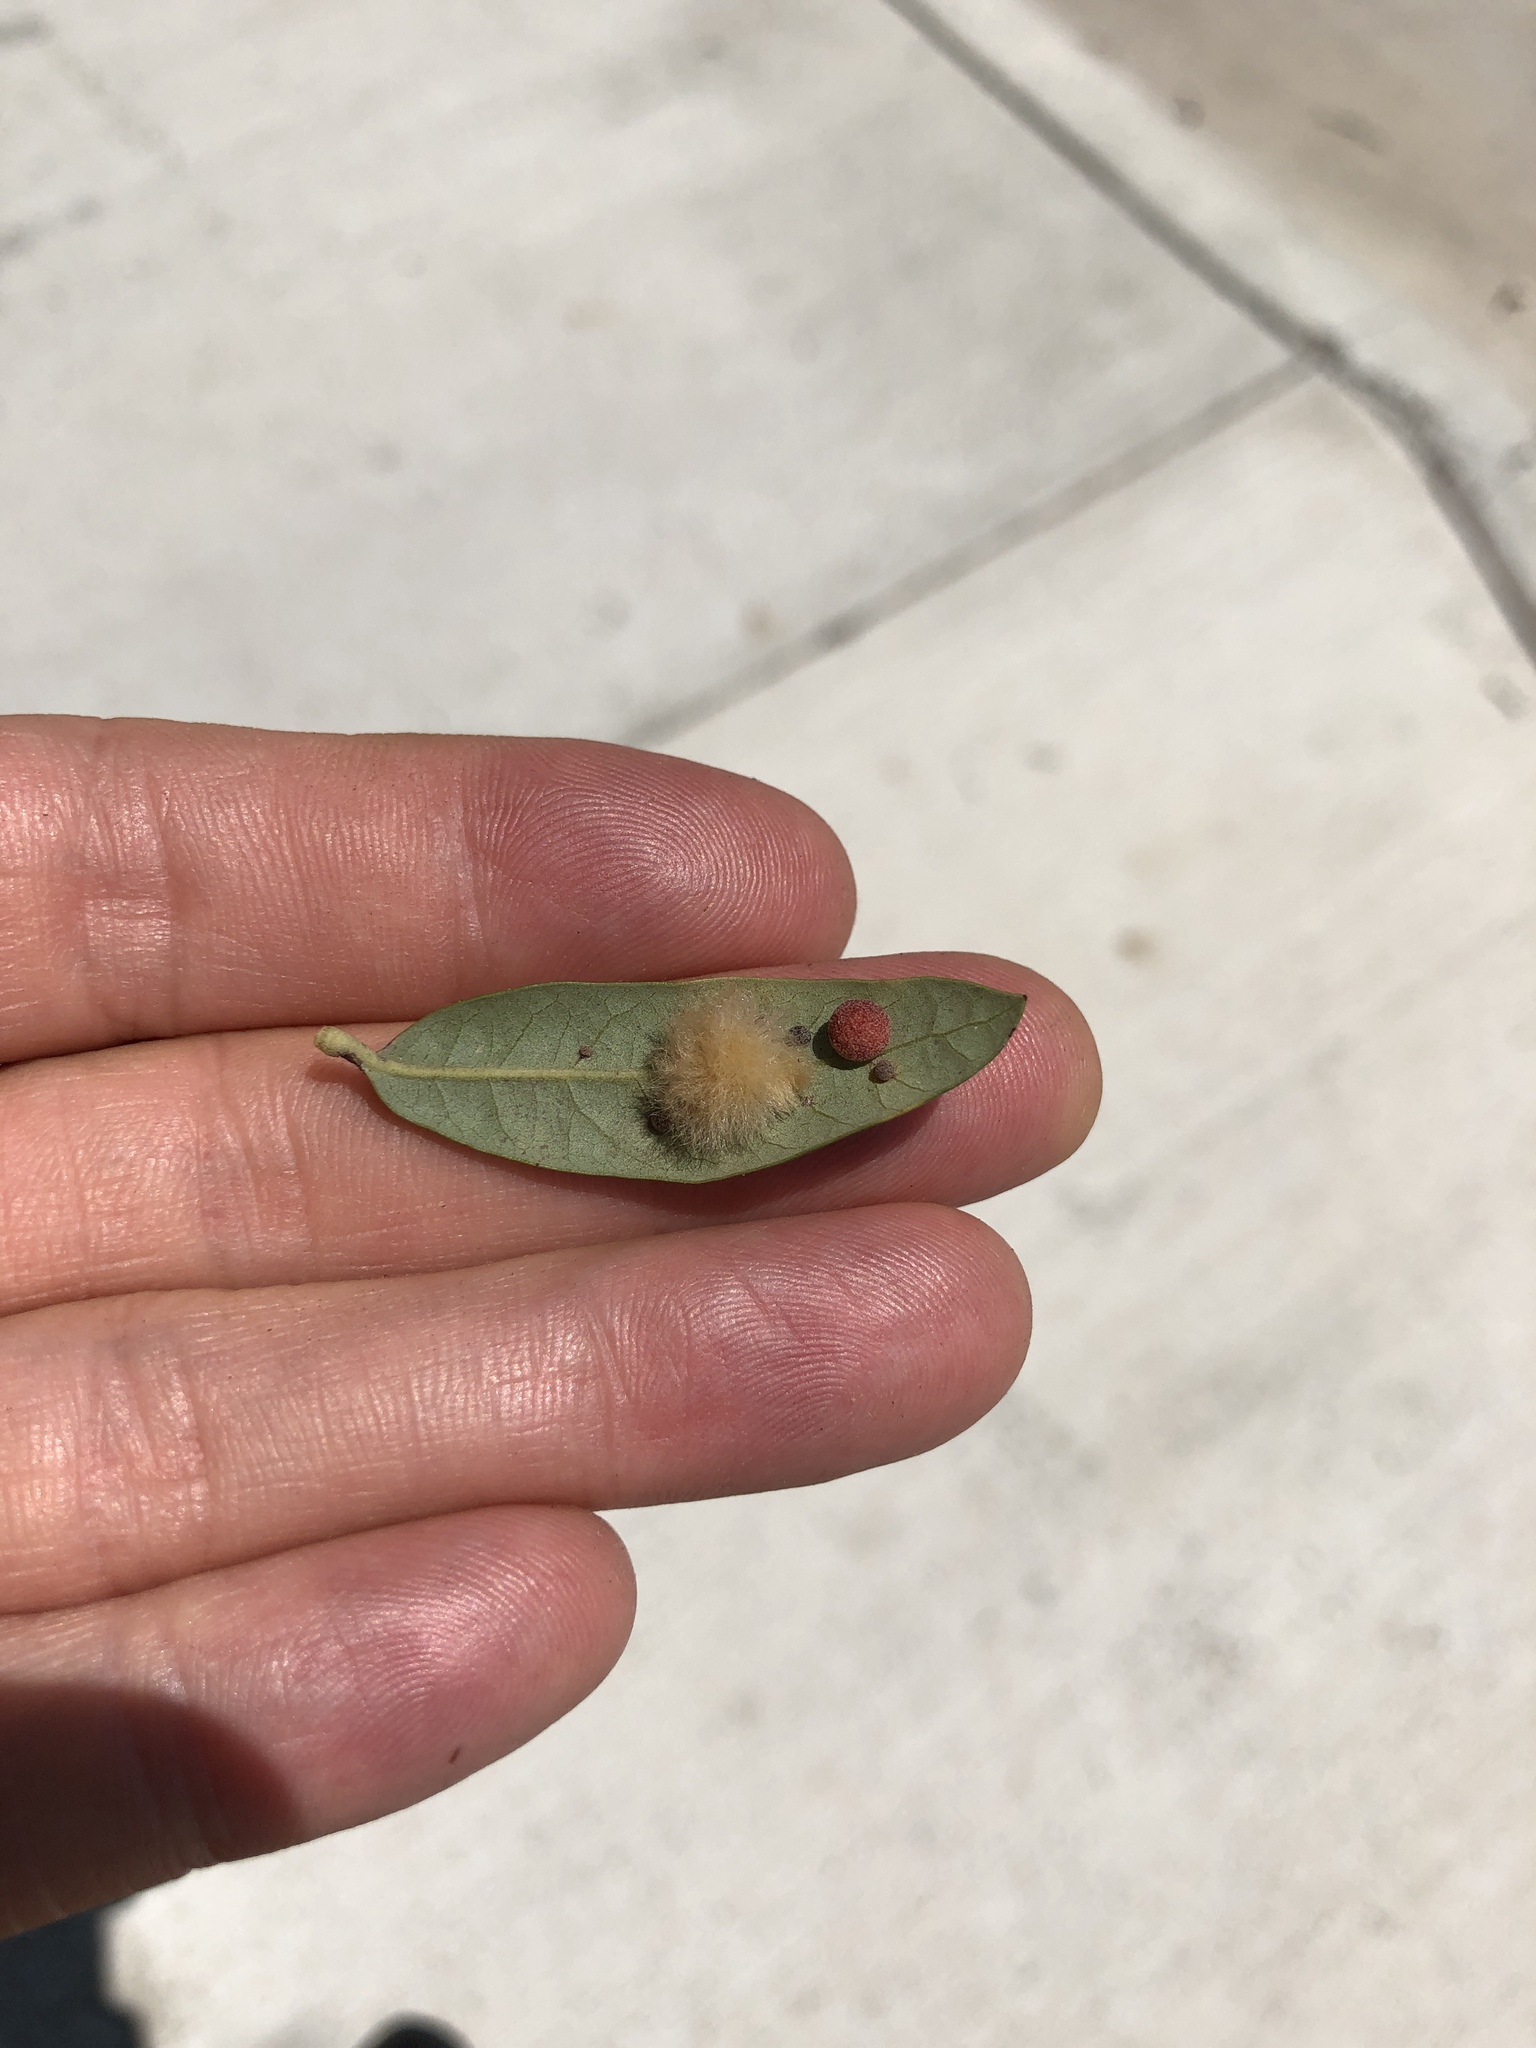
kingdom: Animalia
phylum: Arthropoda
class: Insecta
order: Hymenoptera
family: Cynipidae
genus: Andricus
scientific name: Andricus Druon quercuslanigerum
